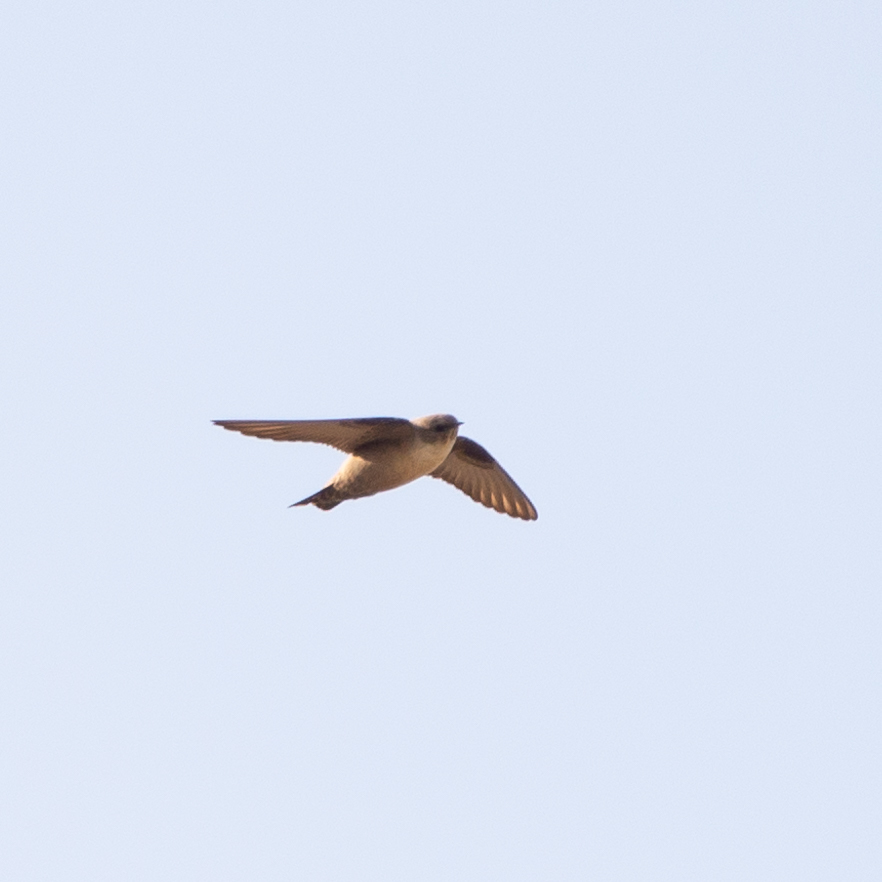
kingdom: Animalia
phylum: Chordata
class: Aves
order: Passeriformes
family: Hirundinidae
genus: Ptyonoprogne
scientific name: Ptyonoprogne rupestris
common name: Eurasian crag martin
